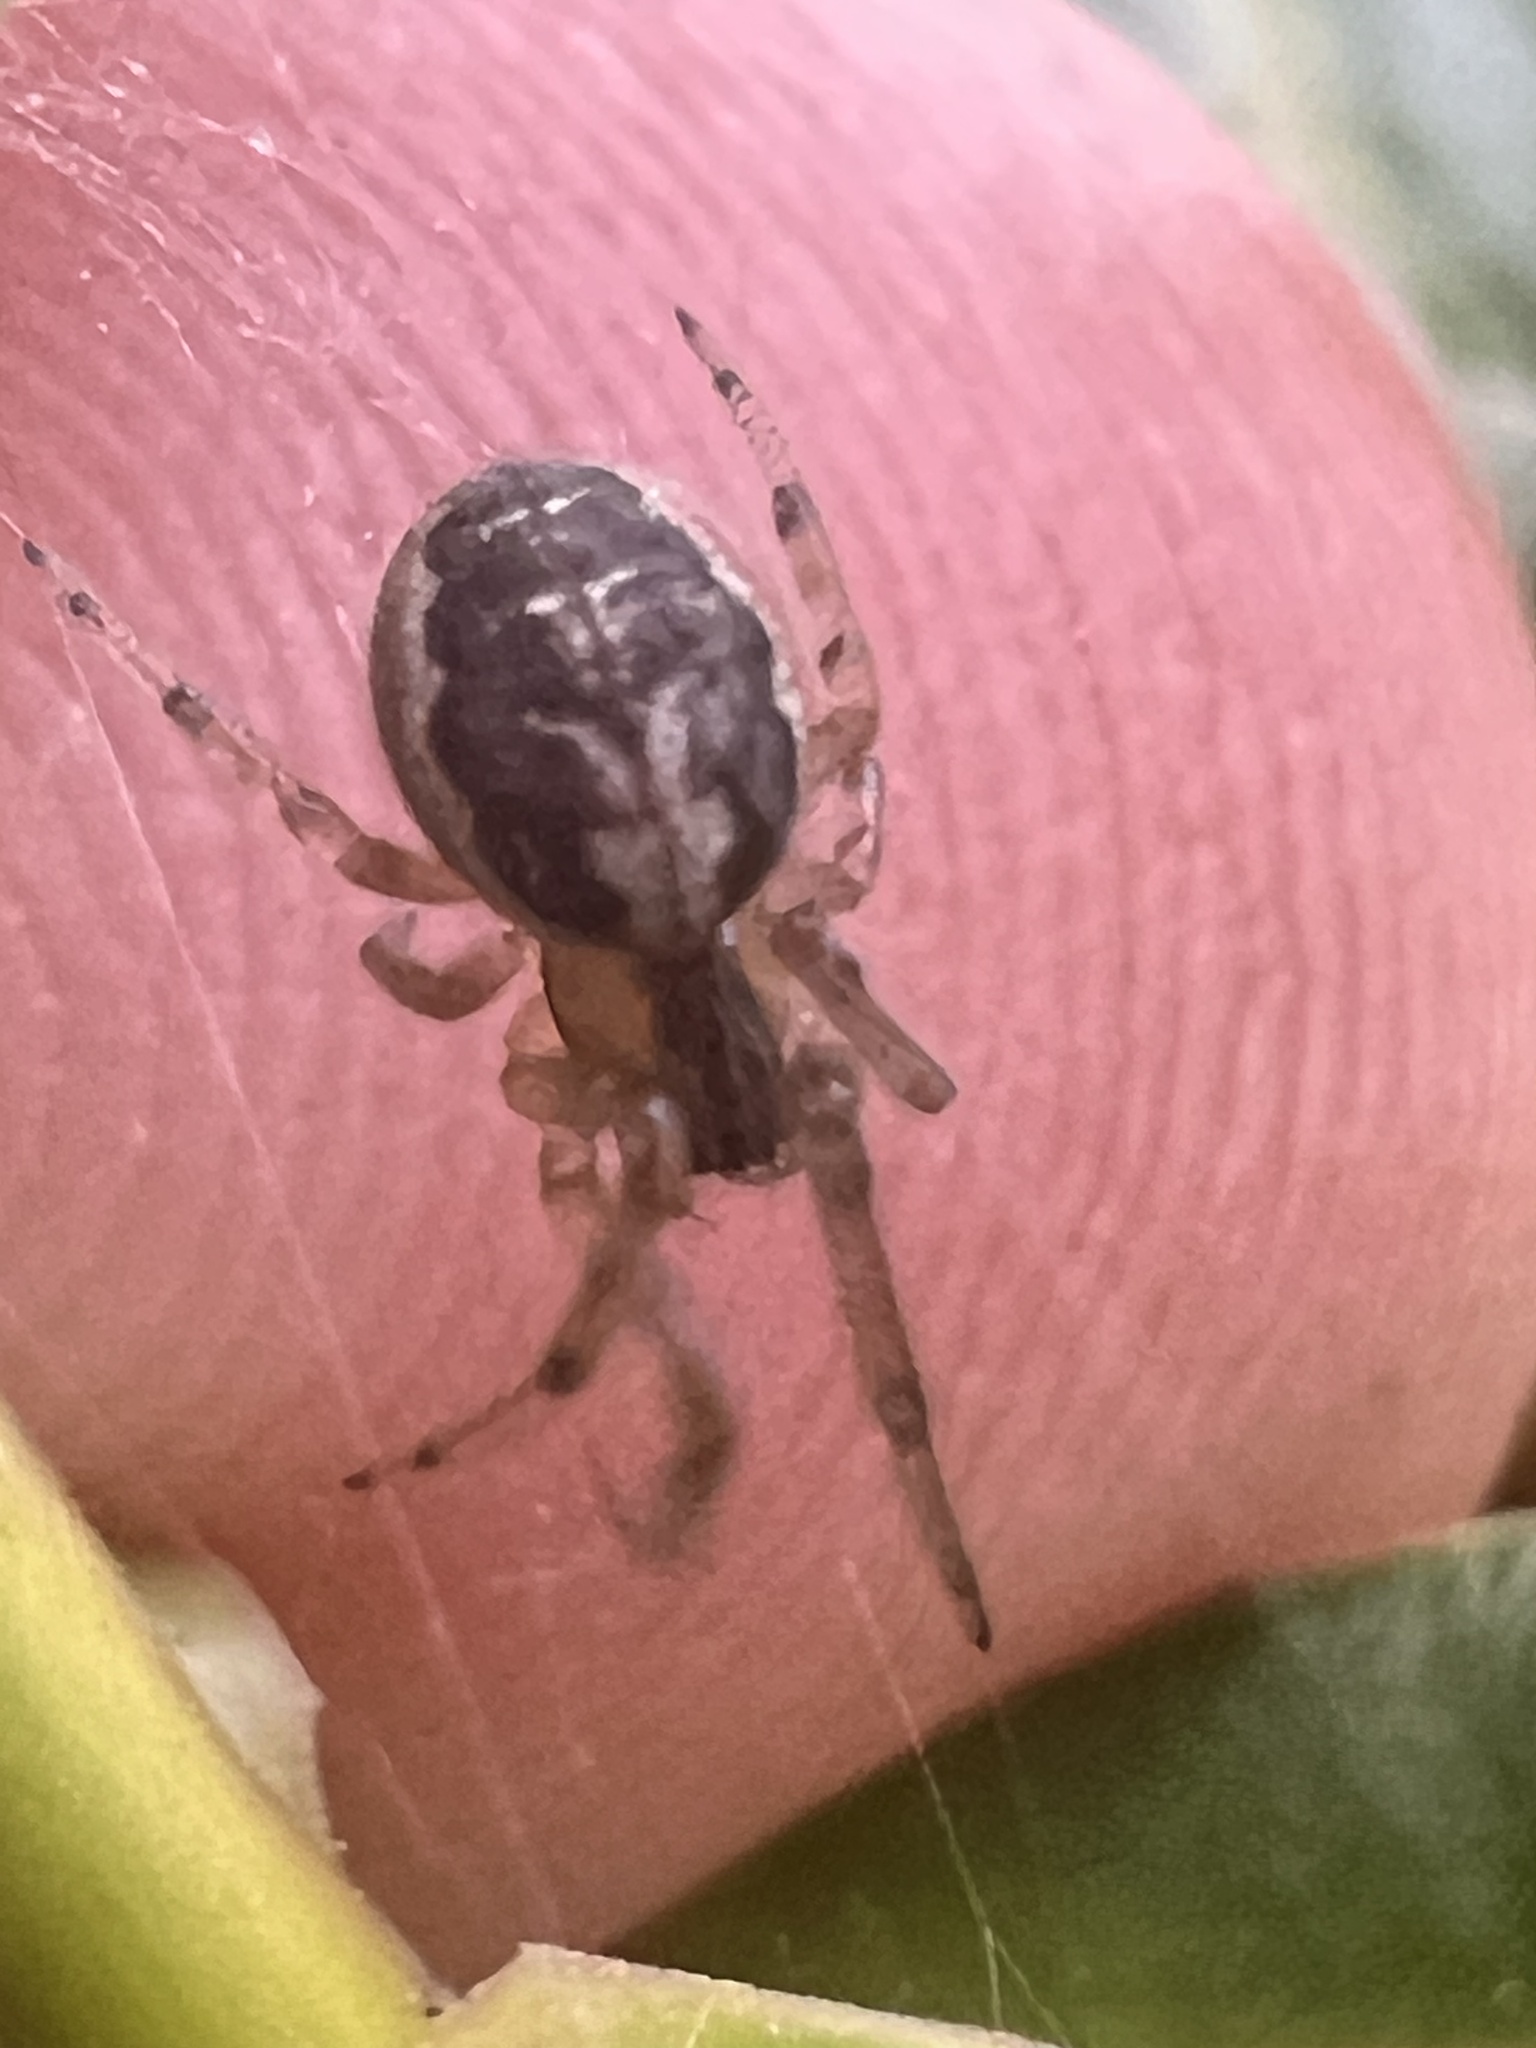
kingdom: Animalia
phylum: Arthropoda
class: Arachnida
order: Araneae
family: Araneidae
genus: Zygiella
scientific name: Zygiella x-notata
